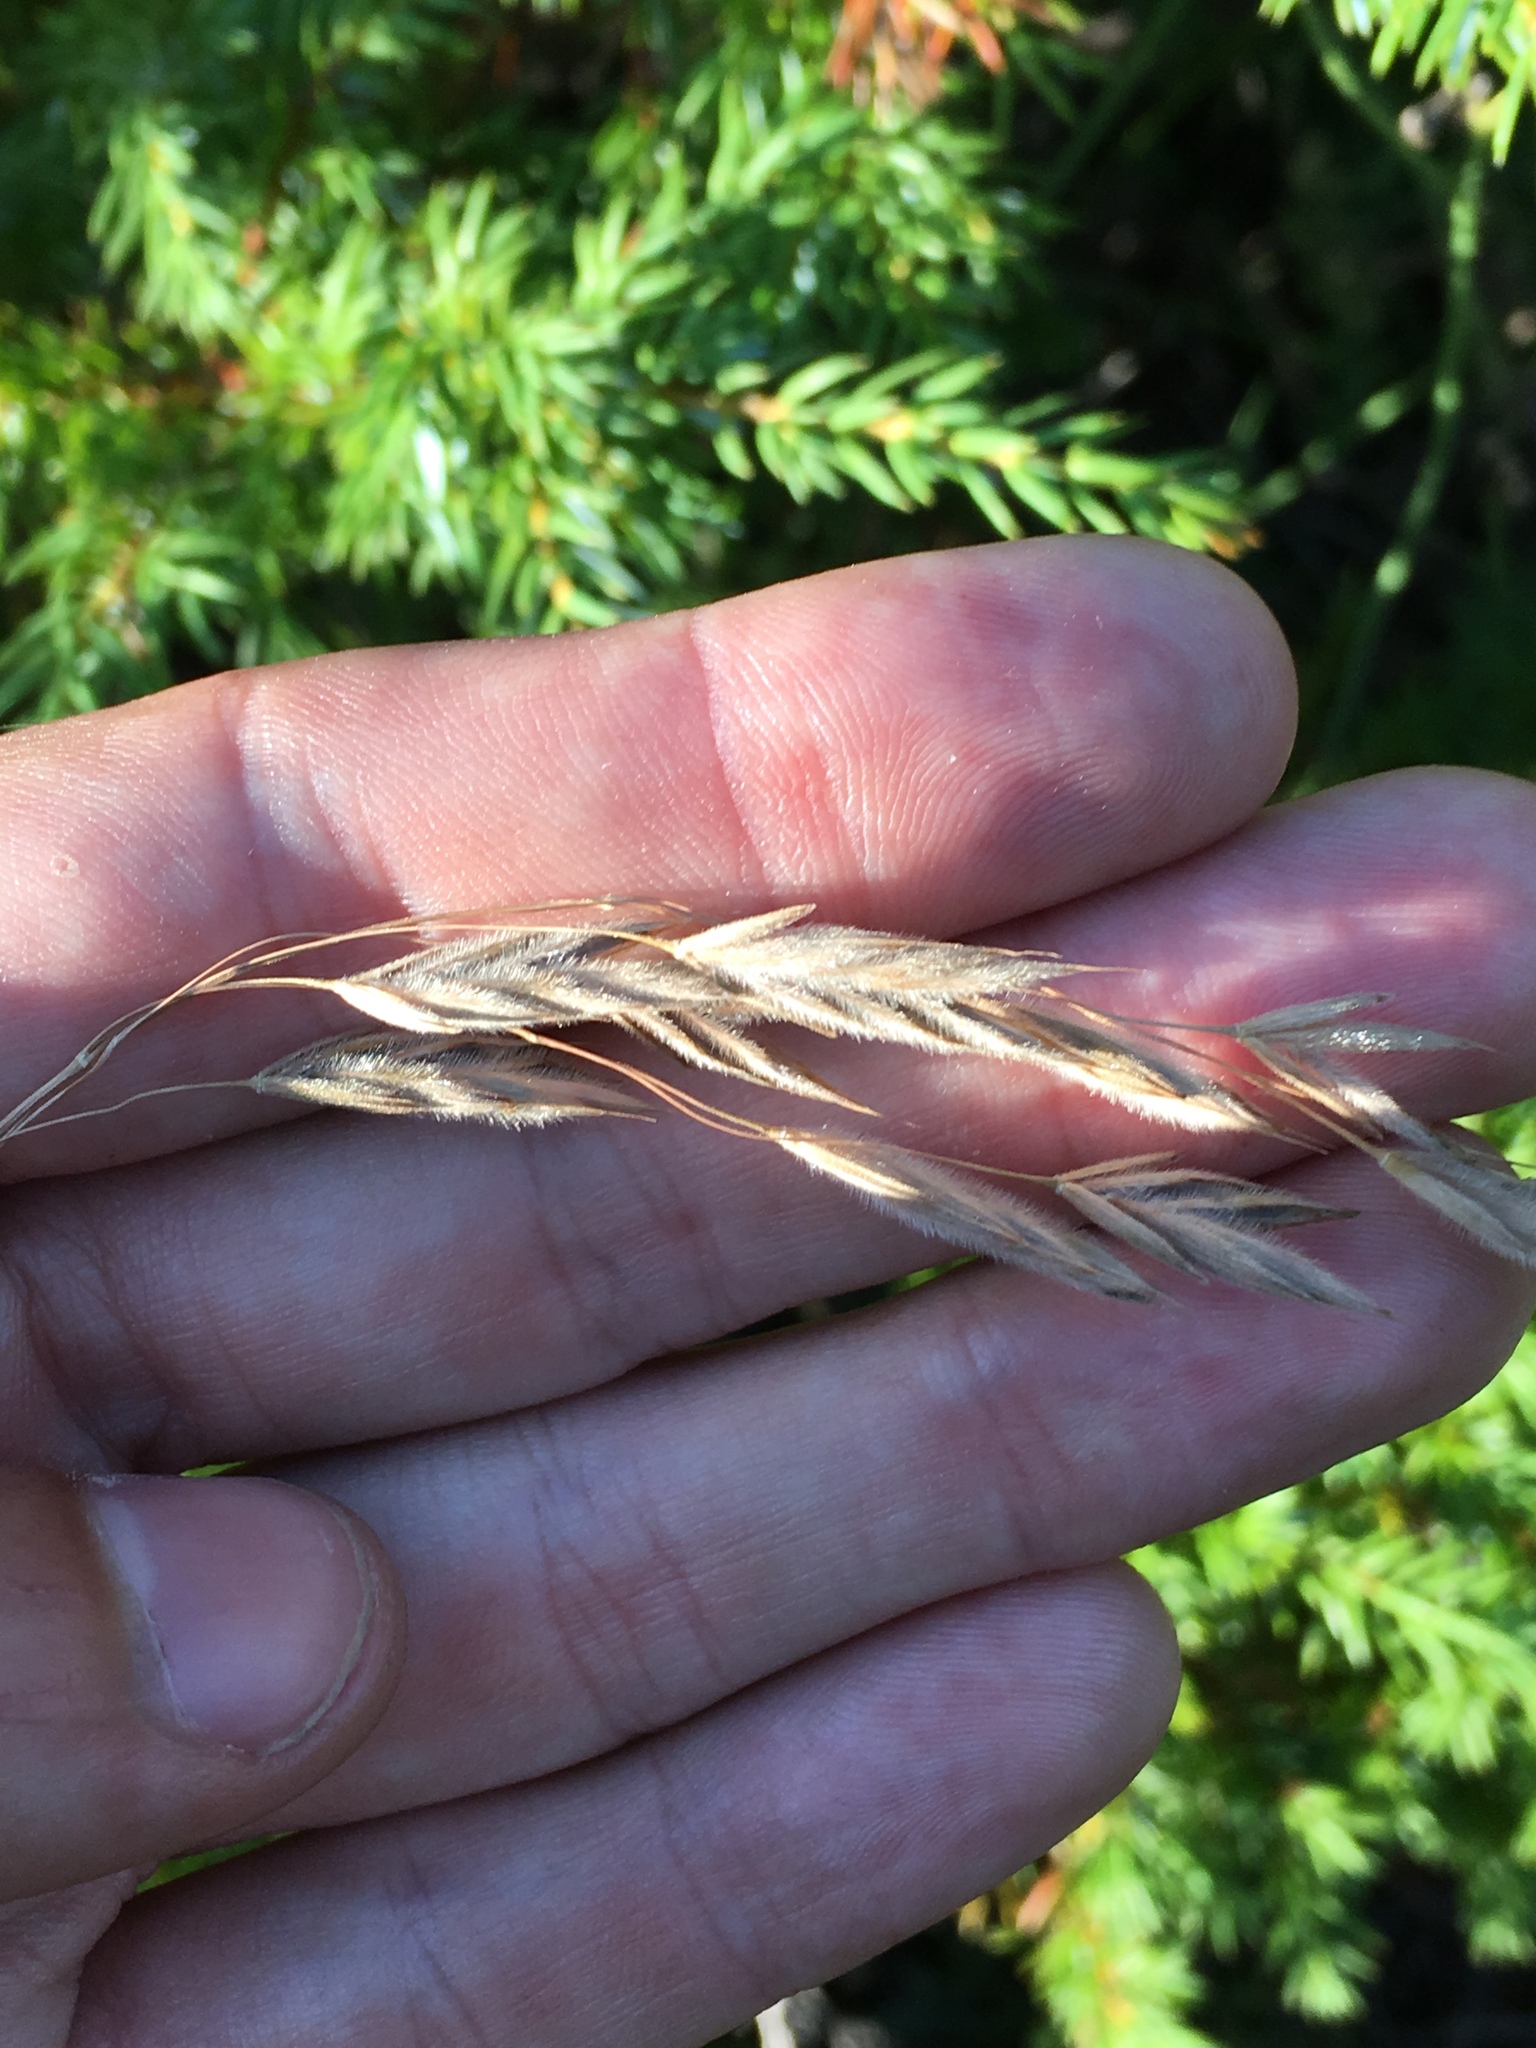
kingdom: Plantae
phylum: Tracheophyta
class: Liliopsida
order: Poales
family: Poaceae
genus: Bromus
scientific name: Bromus kalmii
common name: Kalm brome
